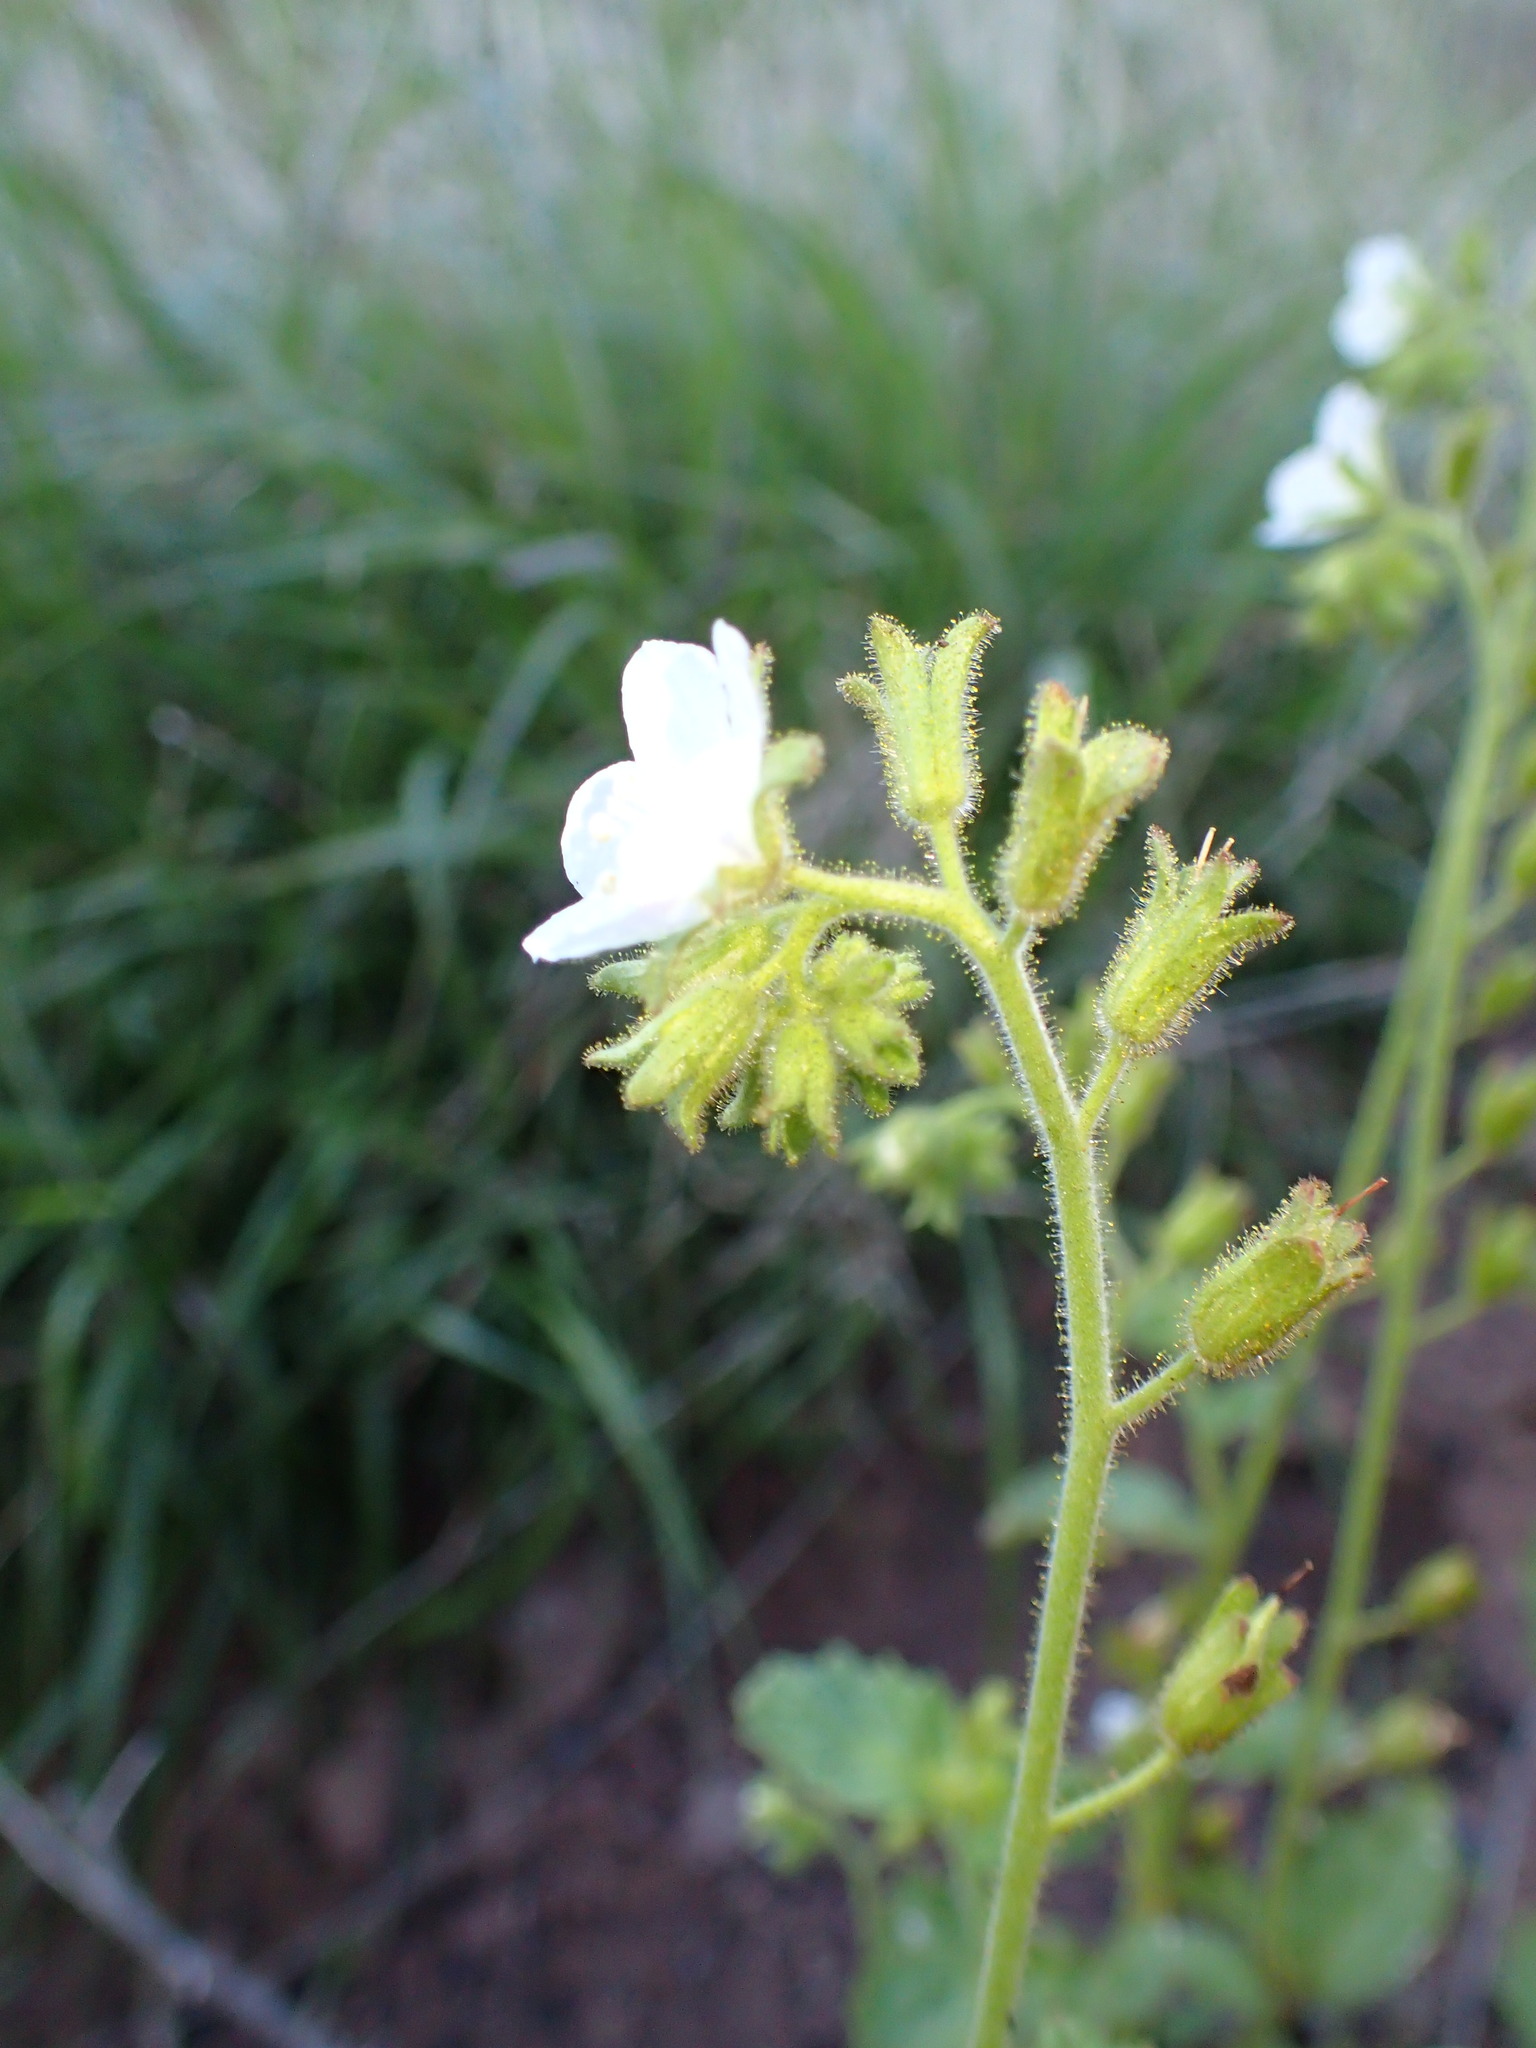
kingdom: Plantae
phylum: Tracheophyta
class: Magnoliopsida
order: Boraginales
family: Hydrophyllaceae
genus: Phacelia
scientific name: Phacelia viscida
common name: Sticky phacelia
